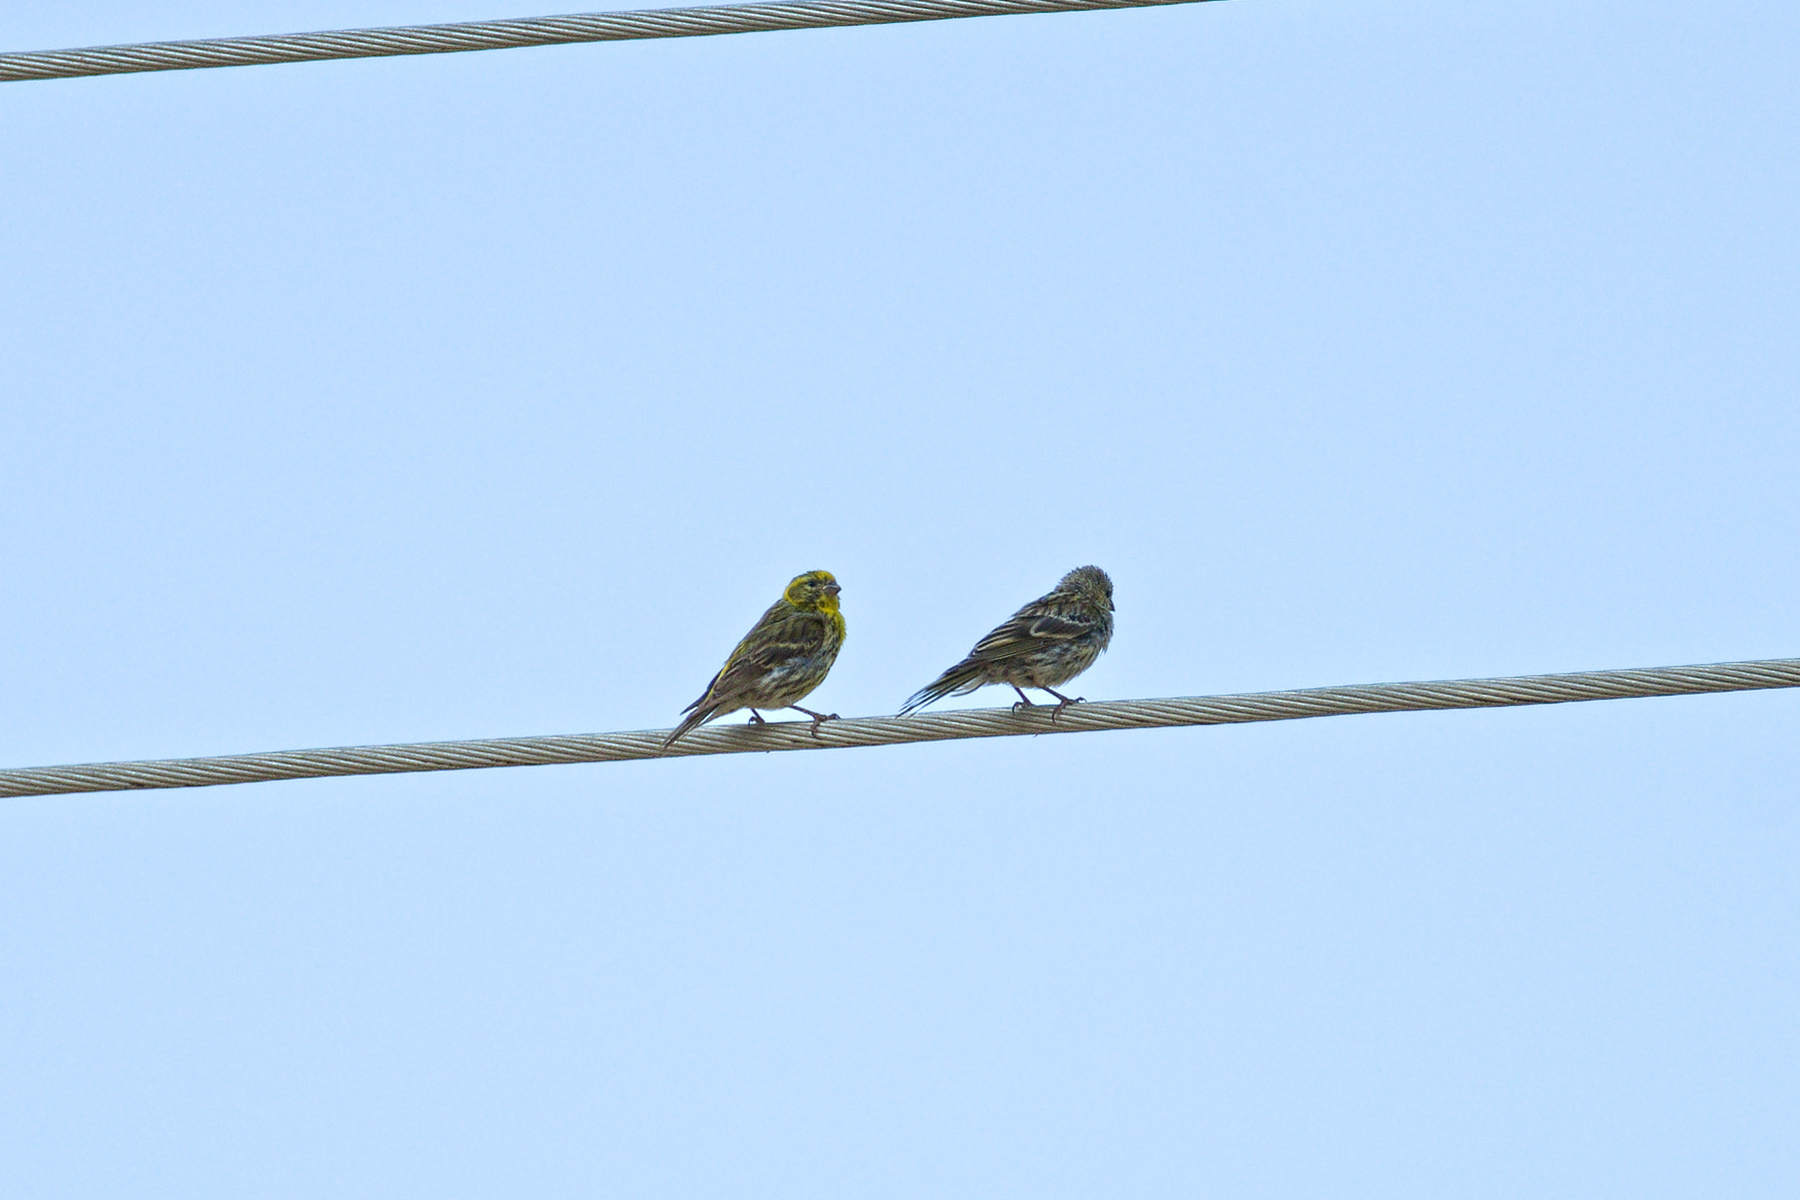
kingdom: Animalia
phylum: Chordata
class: Aves
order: Passeriformes
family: Fringillidae
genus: Serinus
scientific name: Serinus serinus
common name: European serin
